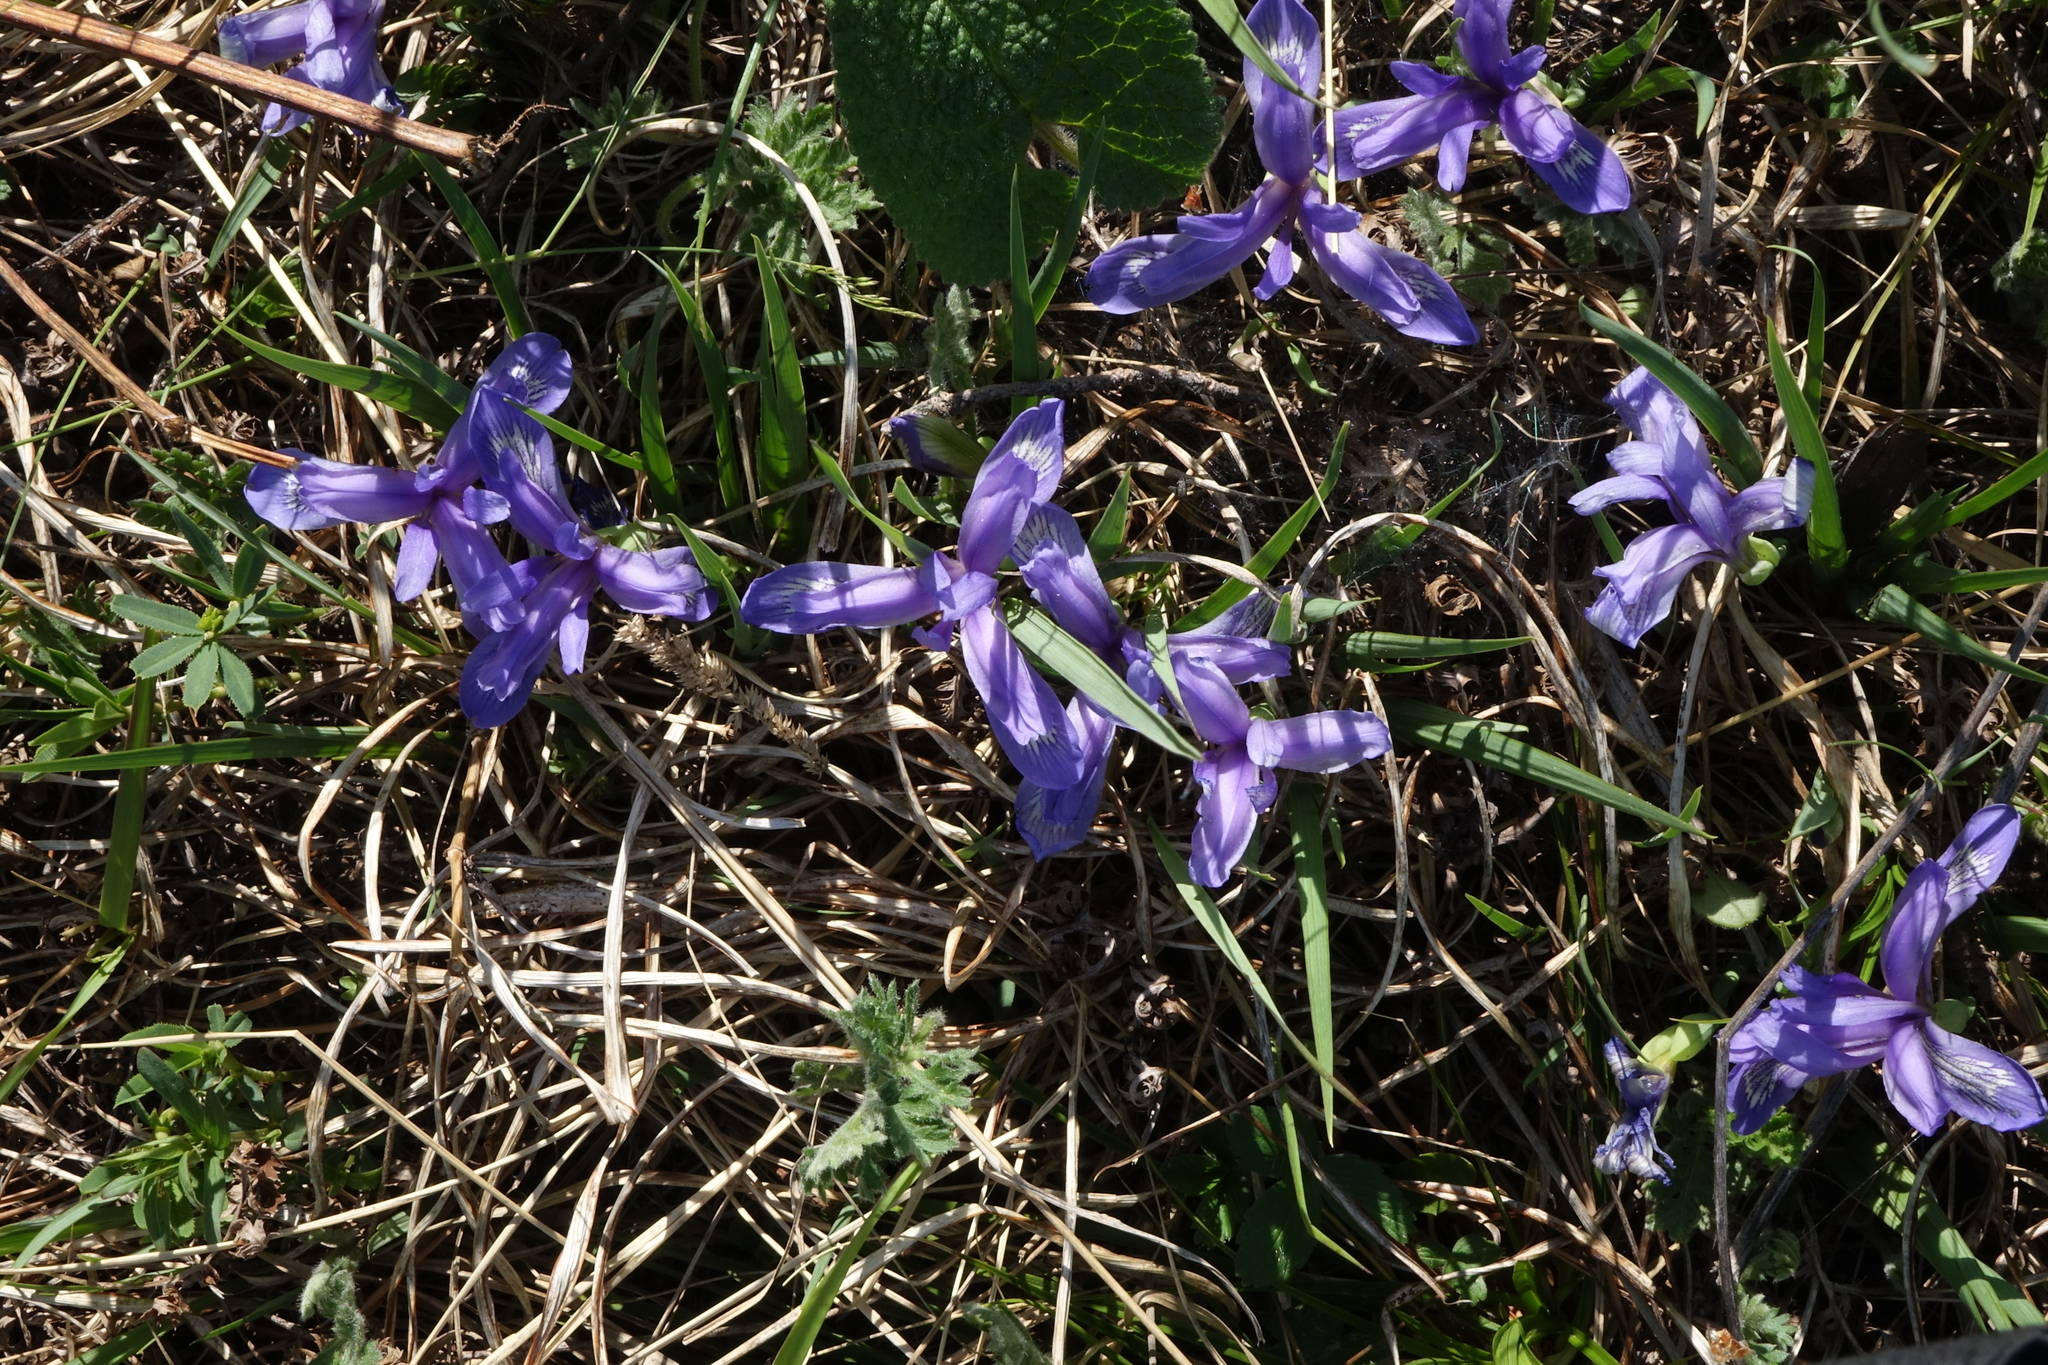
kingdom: Plantae
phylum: Tracheophyta
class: Liliopsida
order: Asparagales
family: Iridaceae
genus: Iris
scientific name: Iris ruthenica
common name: Purple-bract iris
